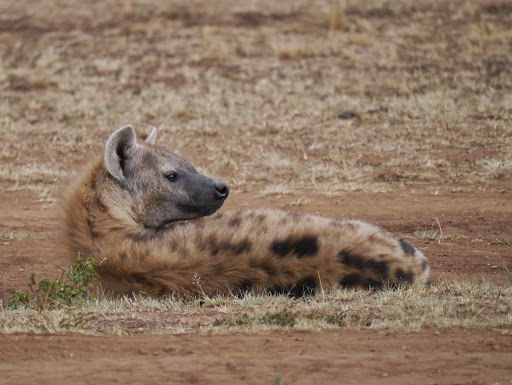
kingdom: Animalia
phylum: Chordata
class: Mammalia
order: Carnivora
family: Hyaenidae
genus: Crocuta
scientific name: Crocuta crocuta
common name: Spotted hyaena
